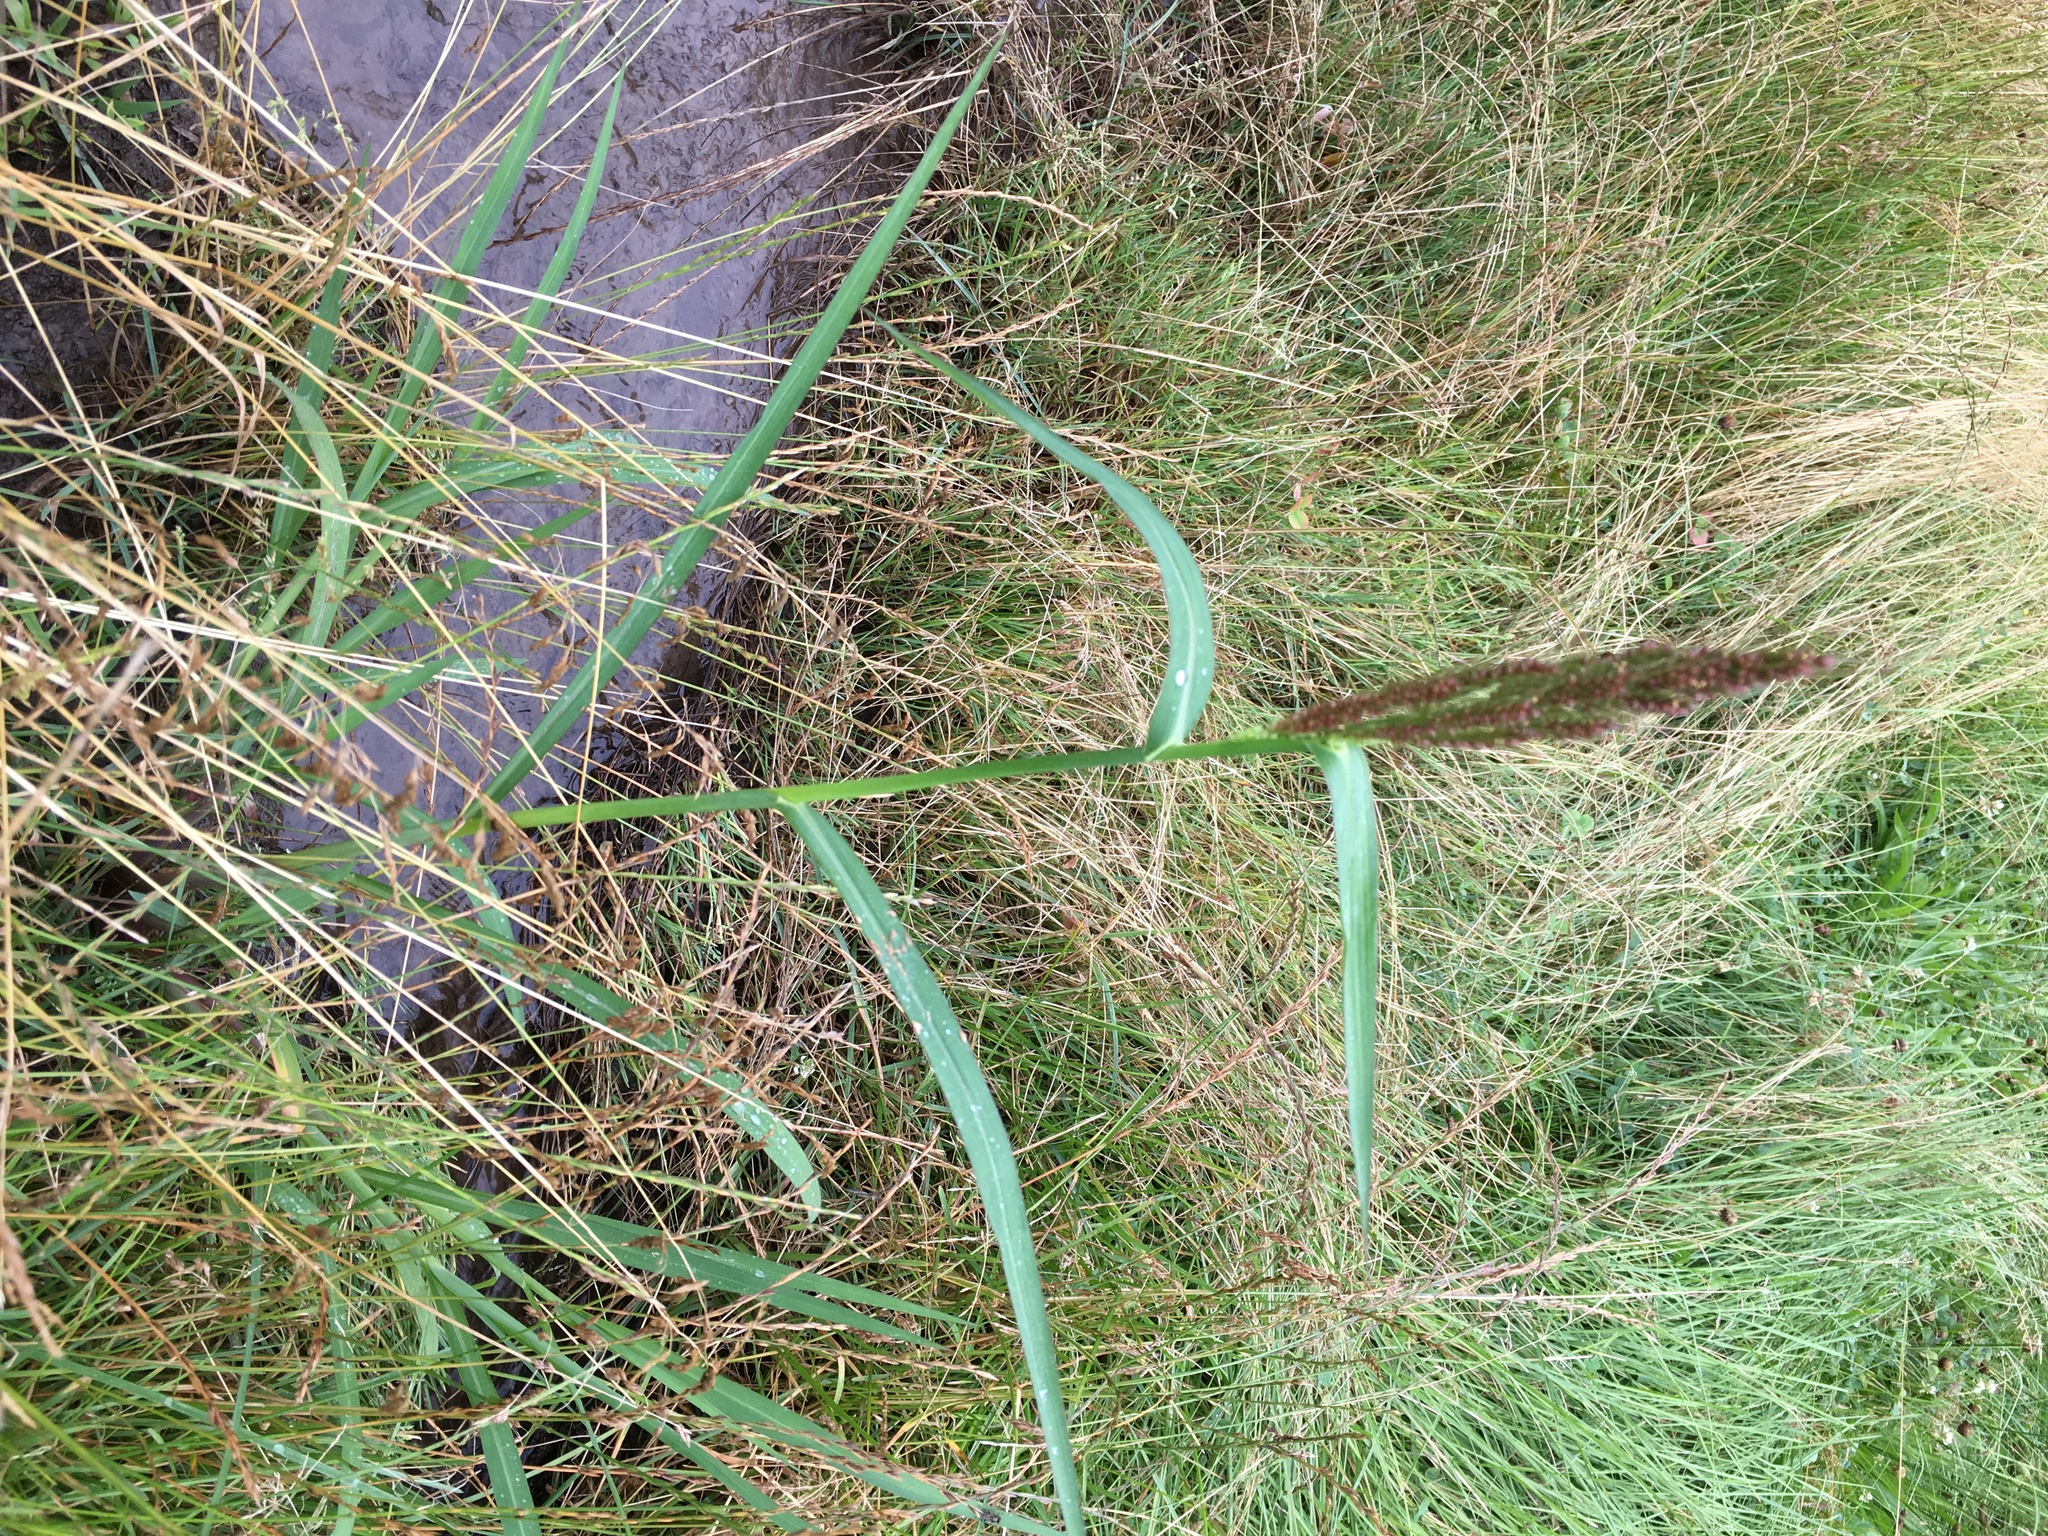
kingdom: Plantae
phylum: Tracheophyta
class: Liliopsida
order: Poales
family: Poaceae
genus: Echinochloa
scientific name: Echinochloa crus-galli
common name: Cockspur
